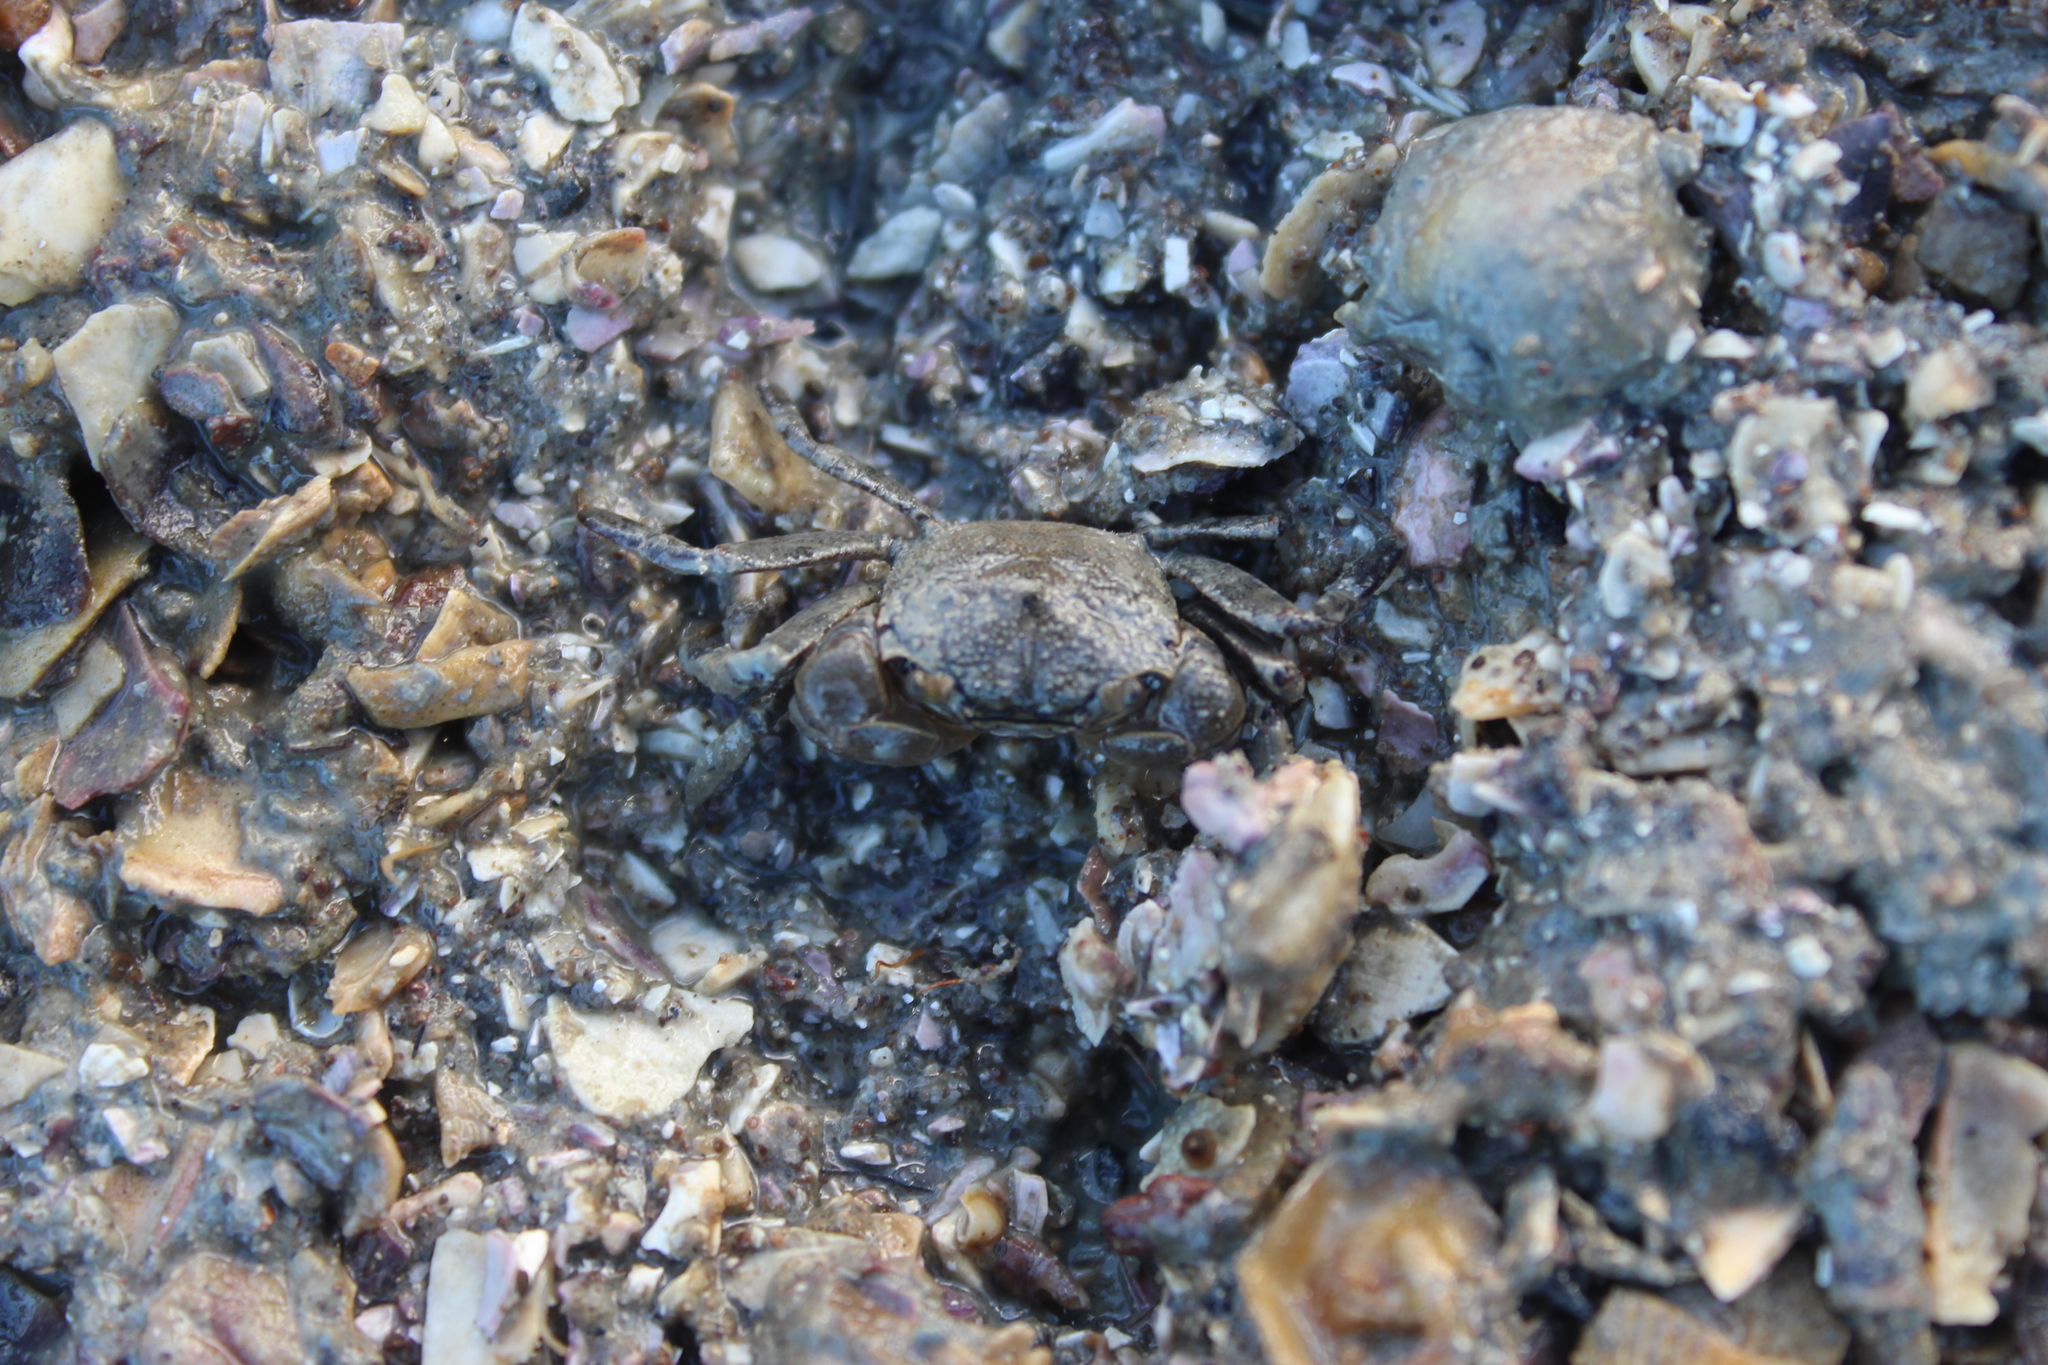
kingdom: Animalia
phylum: Arthropoda
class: Malacostraca
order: Decapoda
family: Varunidae
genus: Austrohelice
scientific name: Austrohelice crassa
